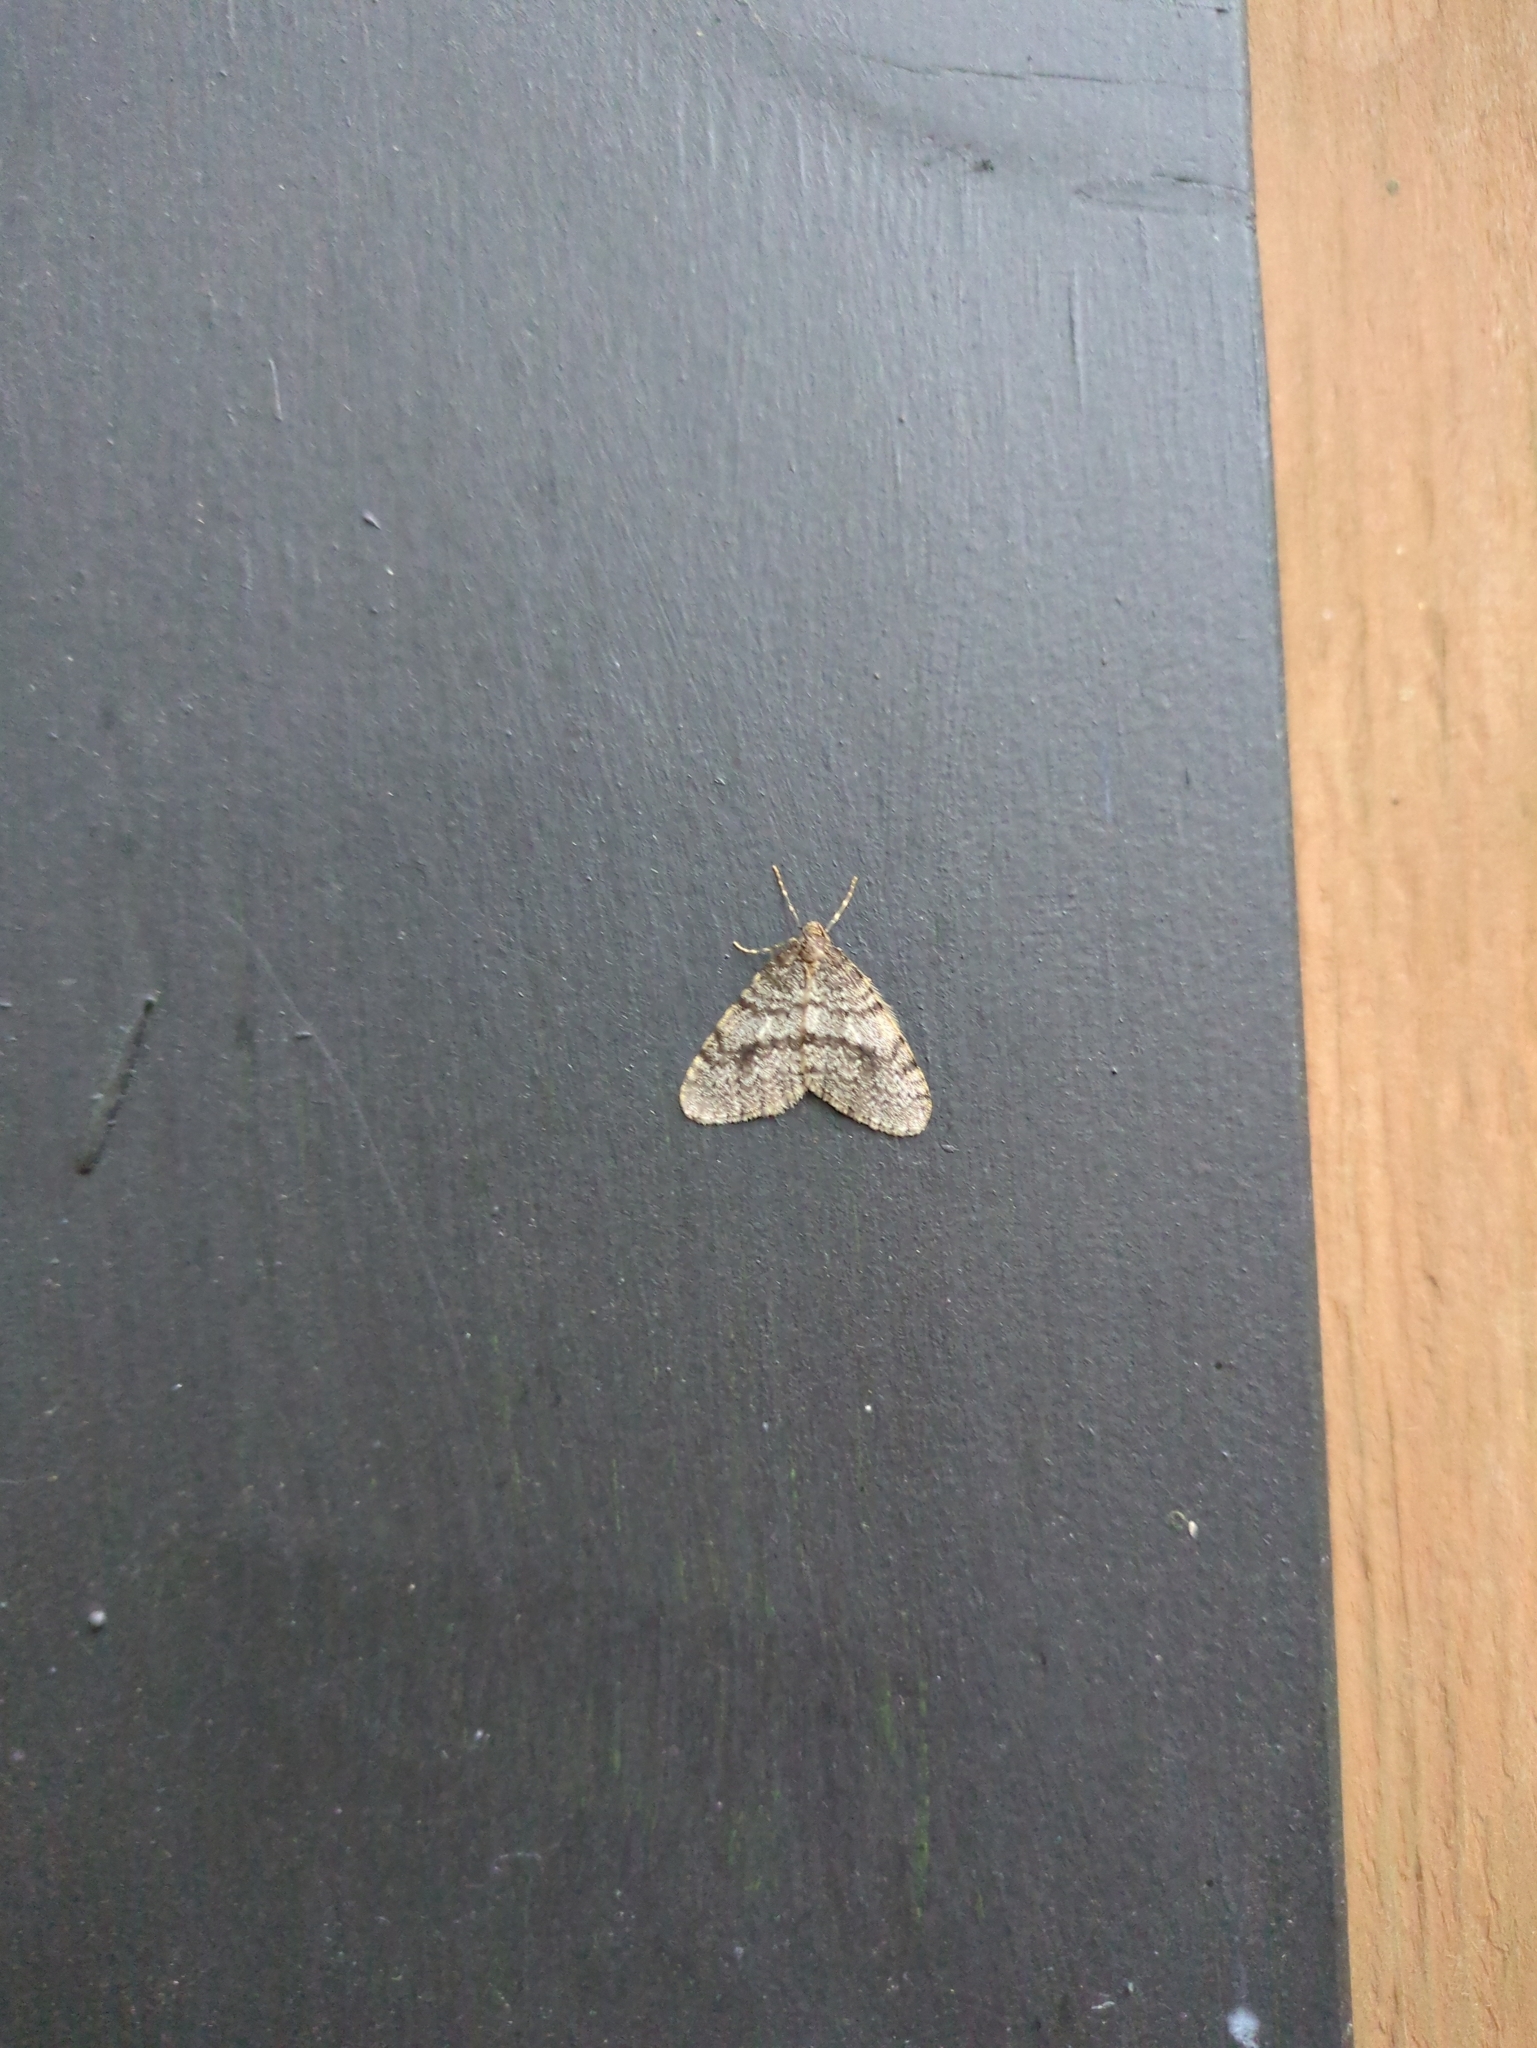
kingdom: Animalia
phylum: Arthropoda
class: Insecta
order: Lepidoptera
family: Geometridae
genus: Operophtera
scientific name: Operophtera occidentalis
